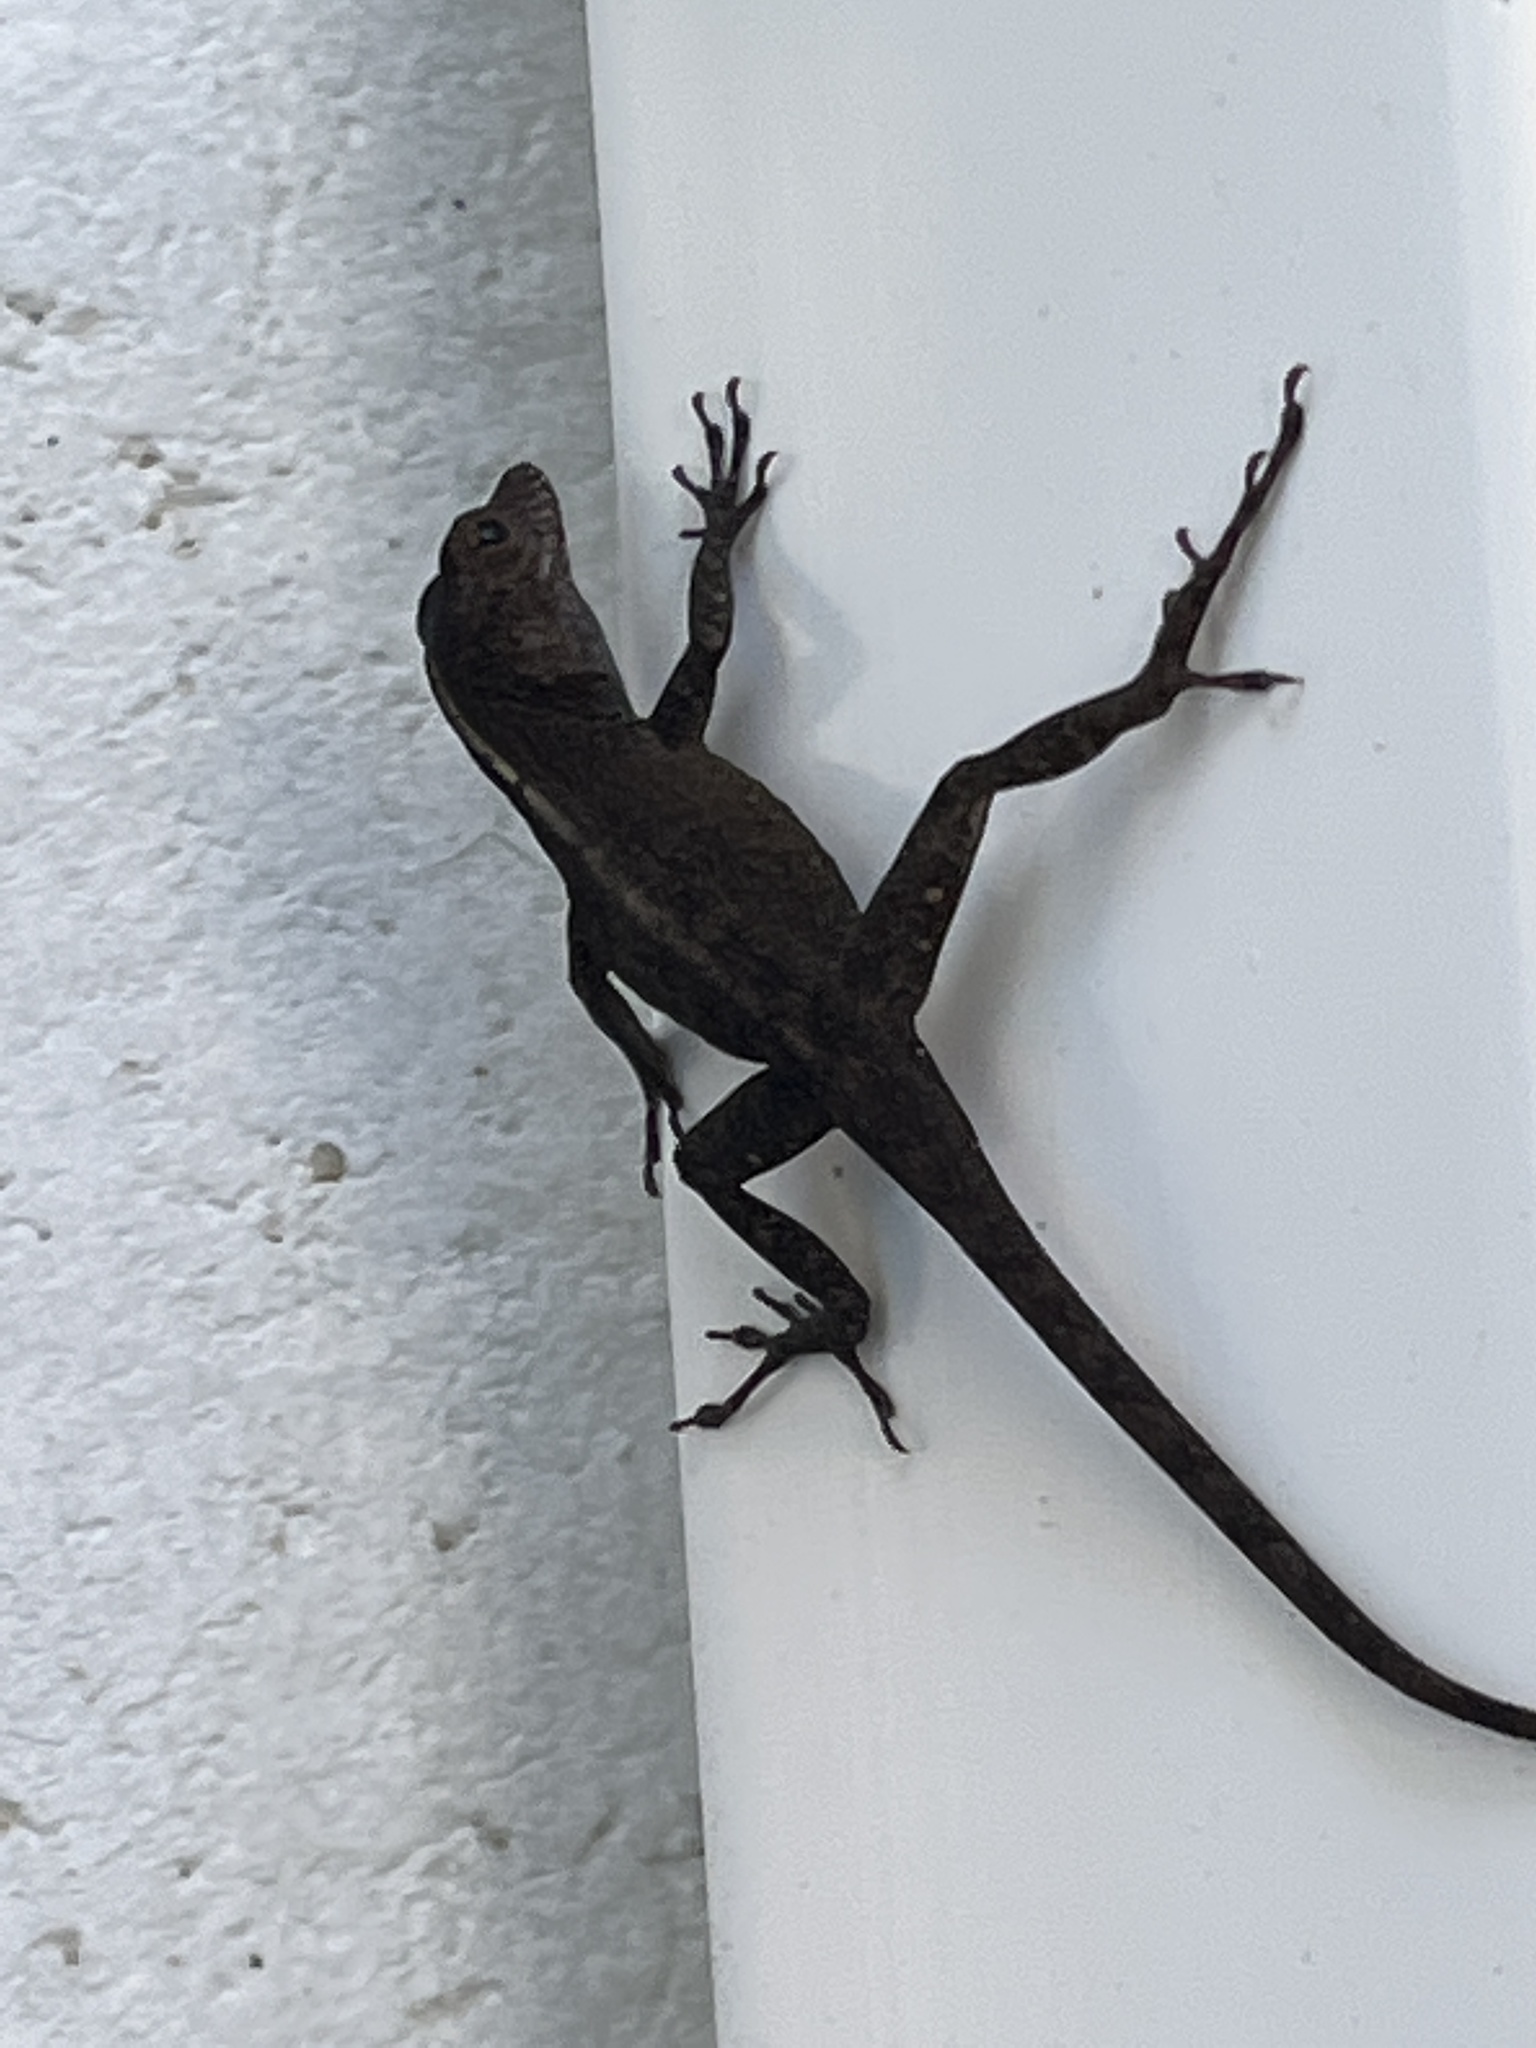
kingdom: Animalia
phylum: Chordata
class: Squamata
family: Dactyloidae
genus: Anolis
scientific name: Anolis cristatellus
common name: Crested anole
